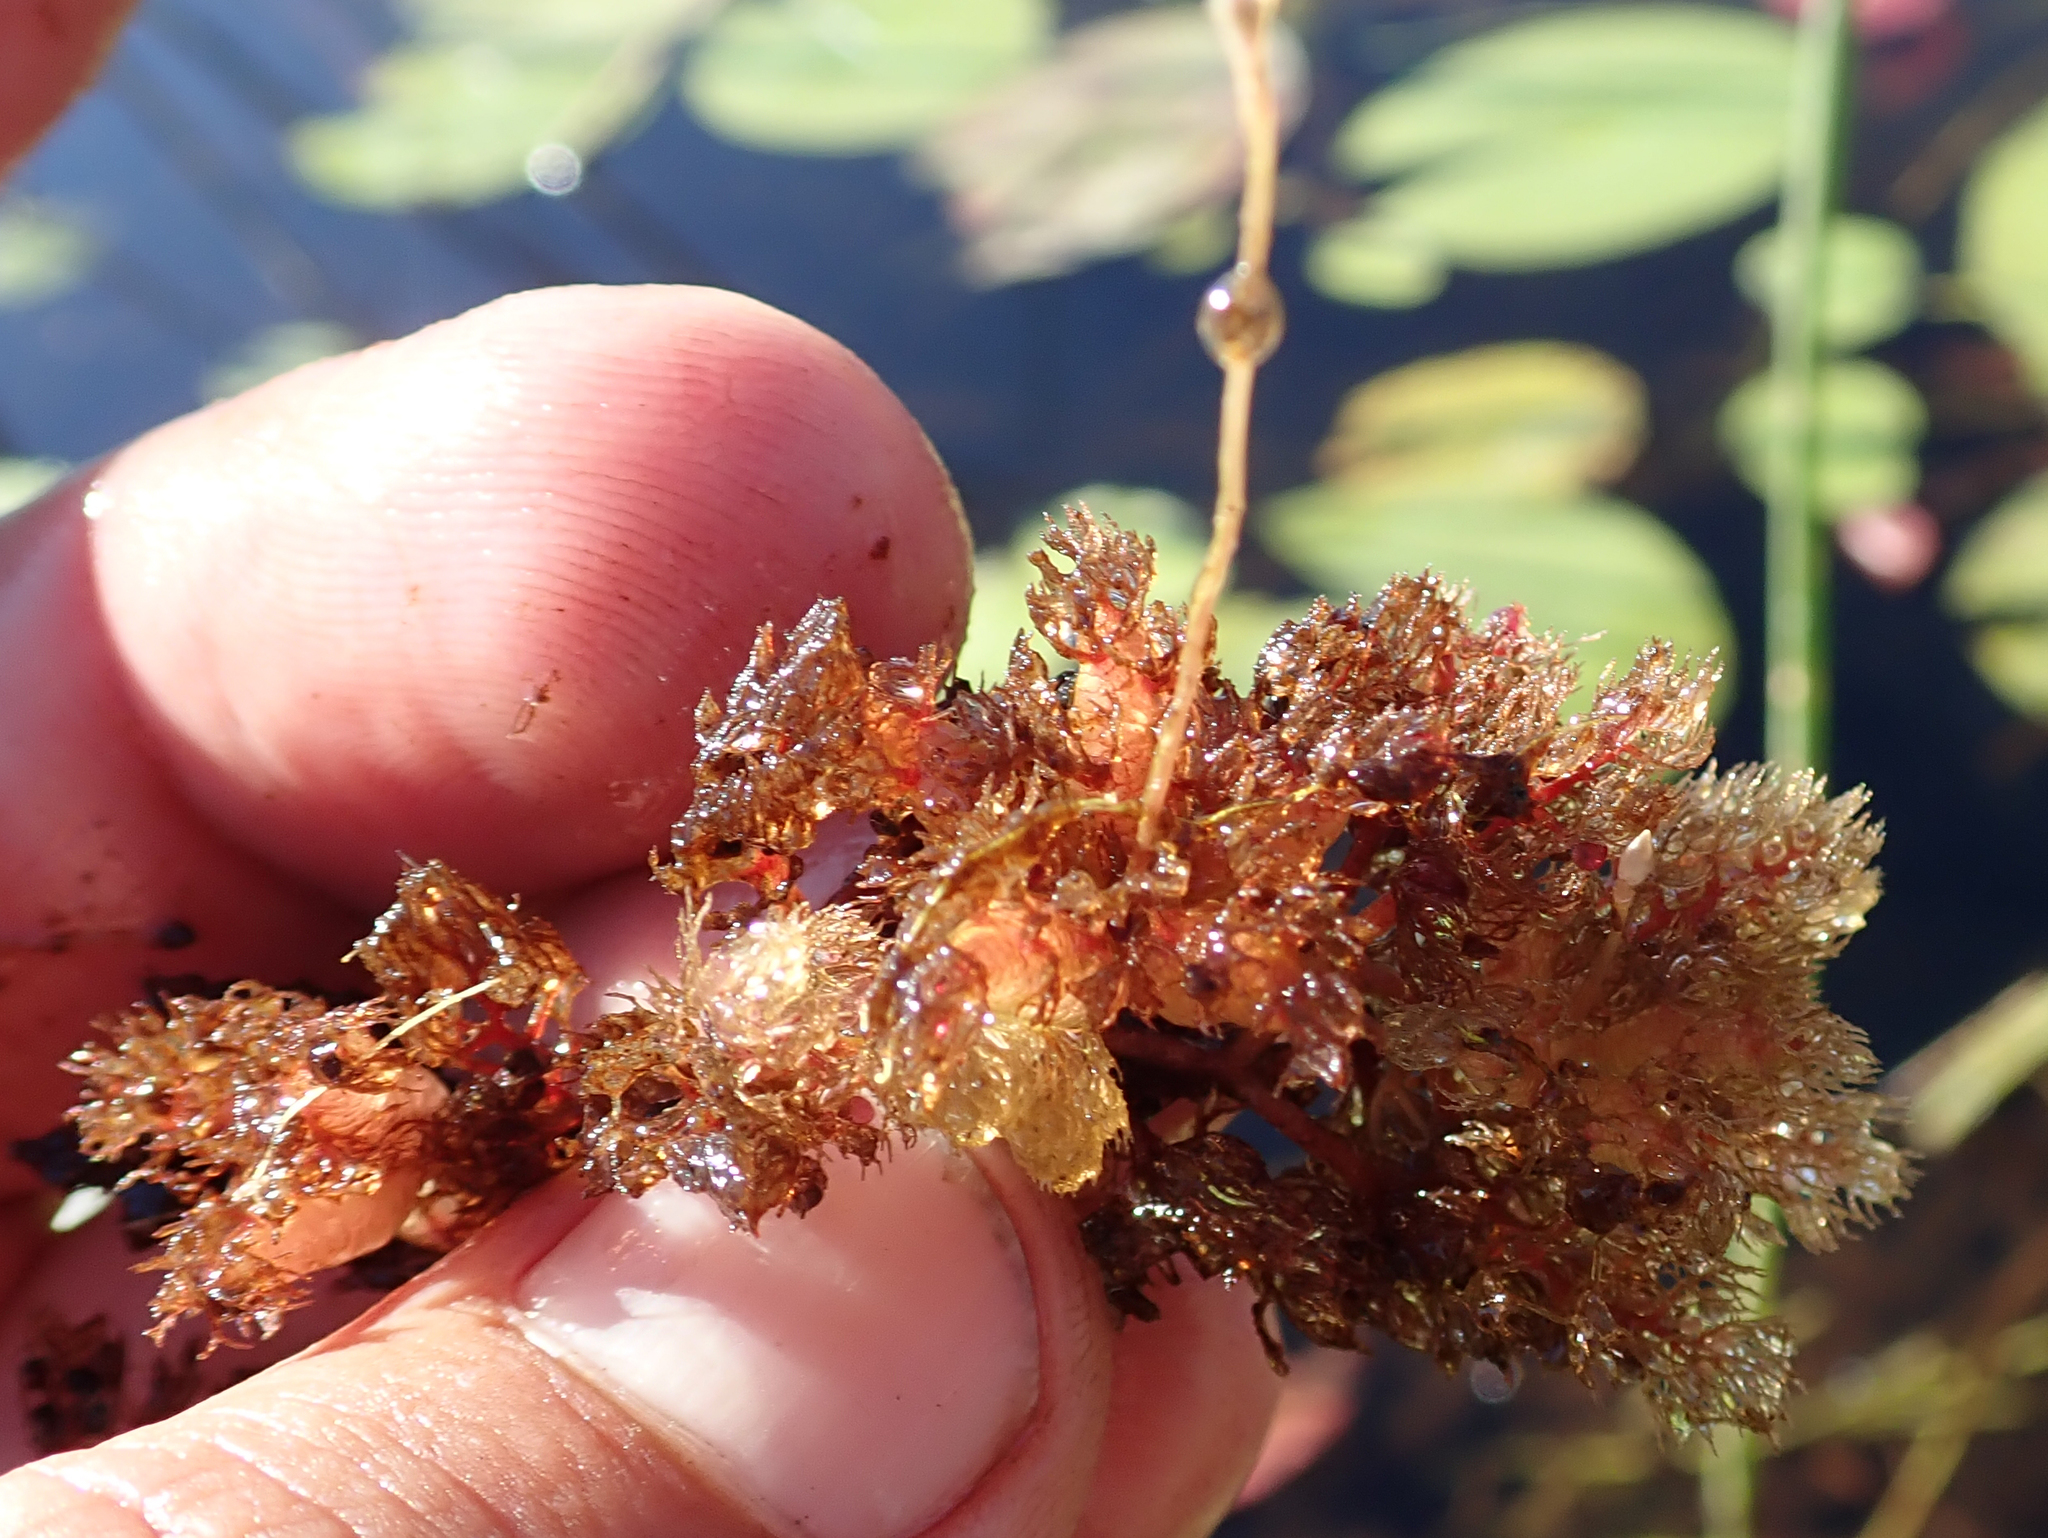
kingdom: Plantae
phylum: Tracheophyta
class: Magnoliopsida
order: Lamiales
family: Lentibulariaceae
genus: Utricularia
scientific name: Utricularia benjaminiana
